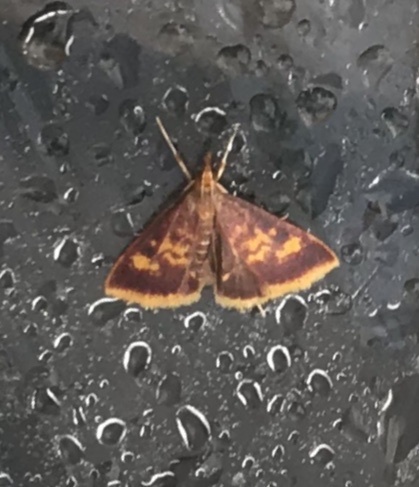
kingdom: Animalia
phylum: Arthropoda
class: Insecta
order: Lepidoptera
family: Crambidae
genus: Pyrausta
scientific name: Pyrausta acrionalis
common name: Mint-loving pyrausta moth
